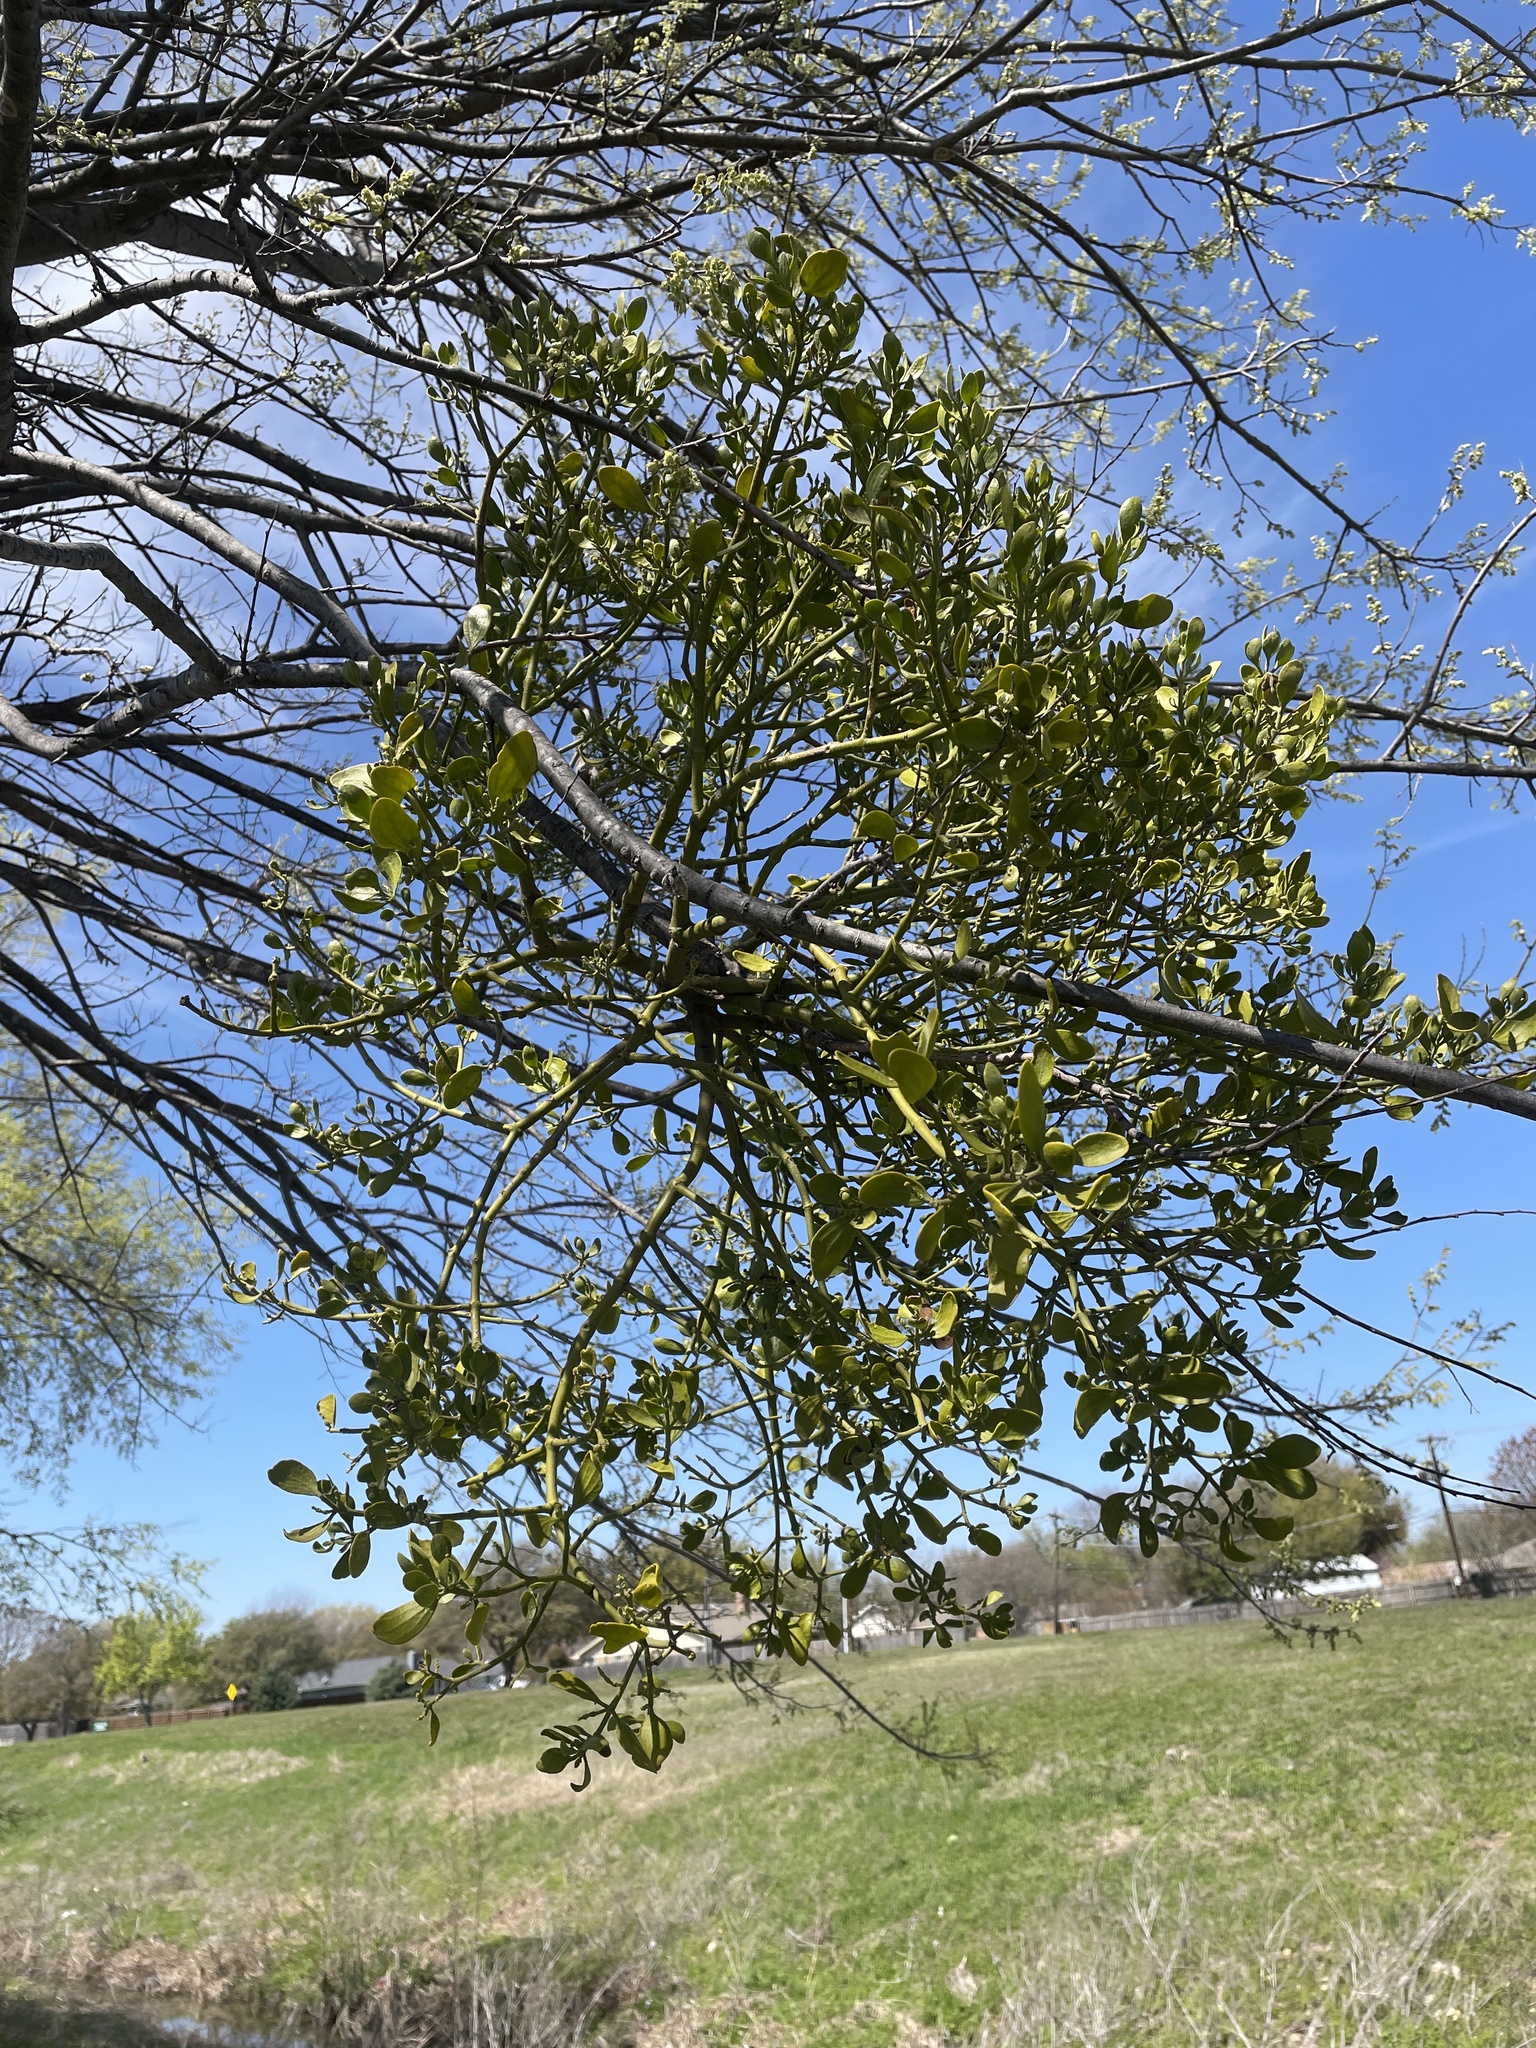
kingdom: Plantae
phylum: Tracheophyta
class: Magnoliopsida
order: Santalales
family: Viscaceae
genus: Phoradendron
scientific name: Phoradendron leucarpum
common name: Pacific mistletoe
